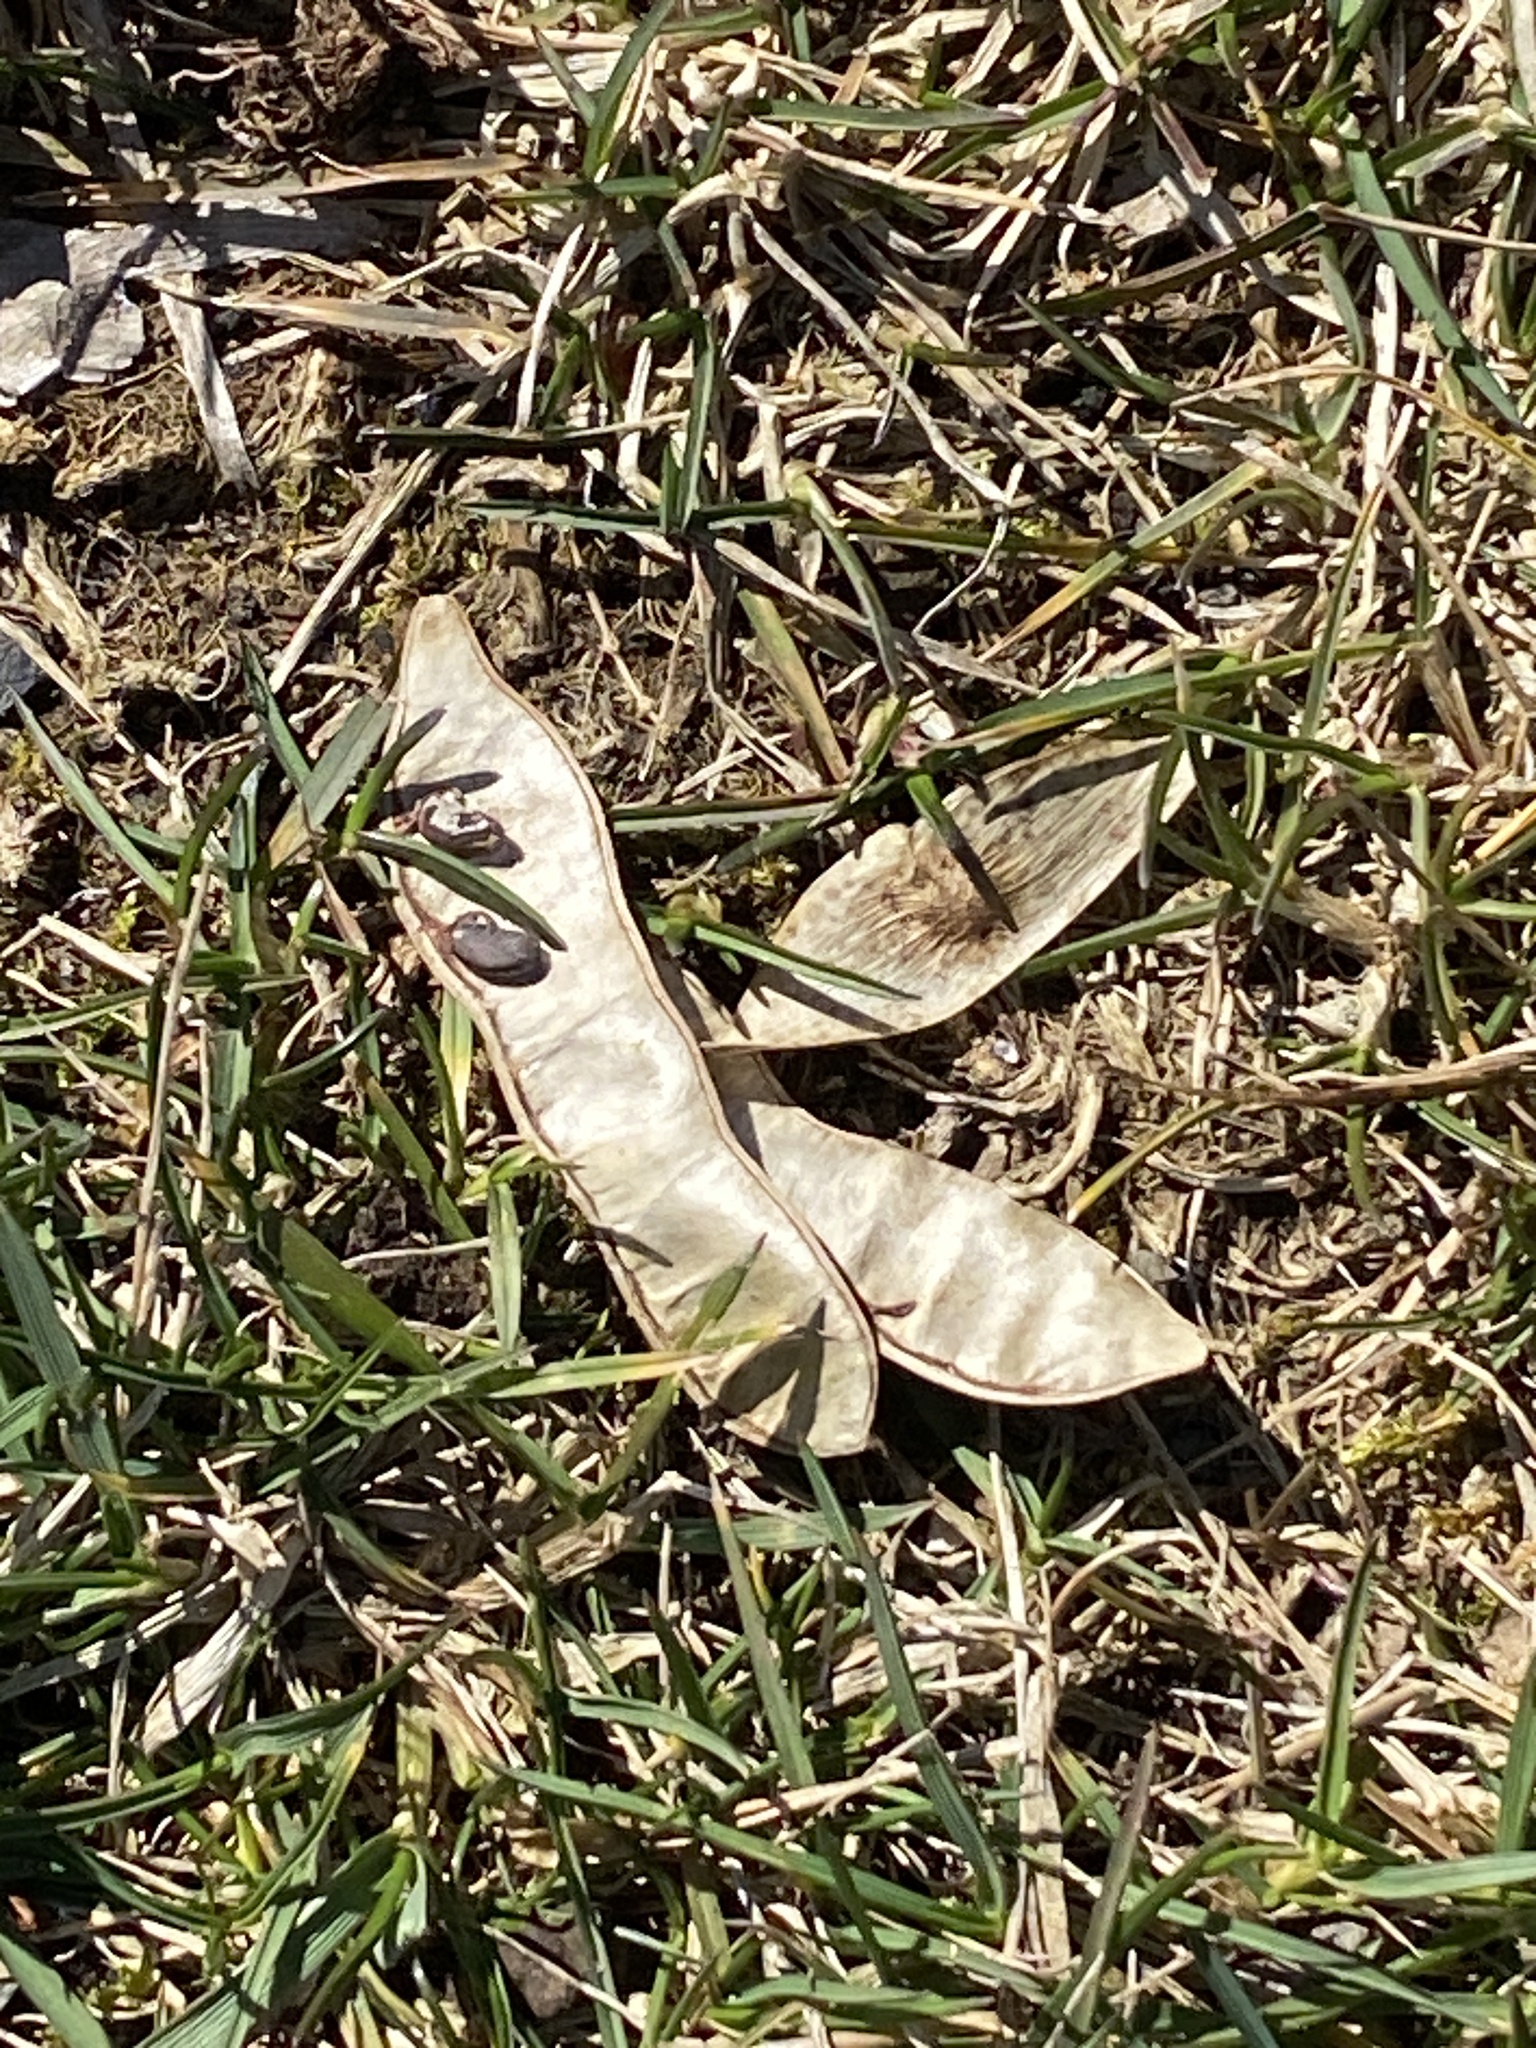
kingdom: Plantae
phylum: Tracheophyta
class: Magnoliopsida
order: Fabales
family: Fabaceae
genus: Robinia
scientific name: Robinia pseudoacacia
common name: Black locust
